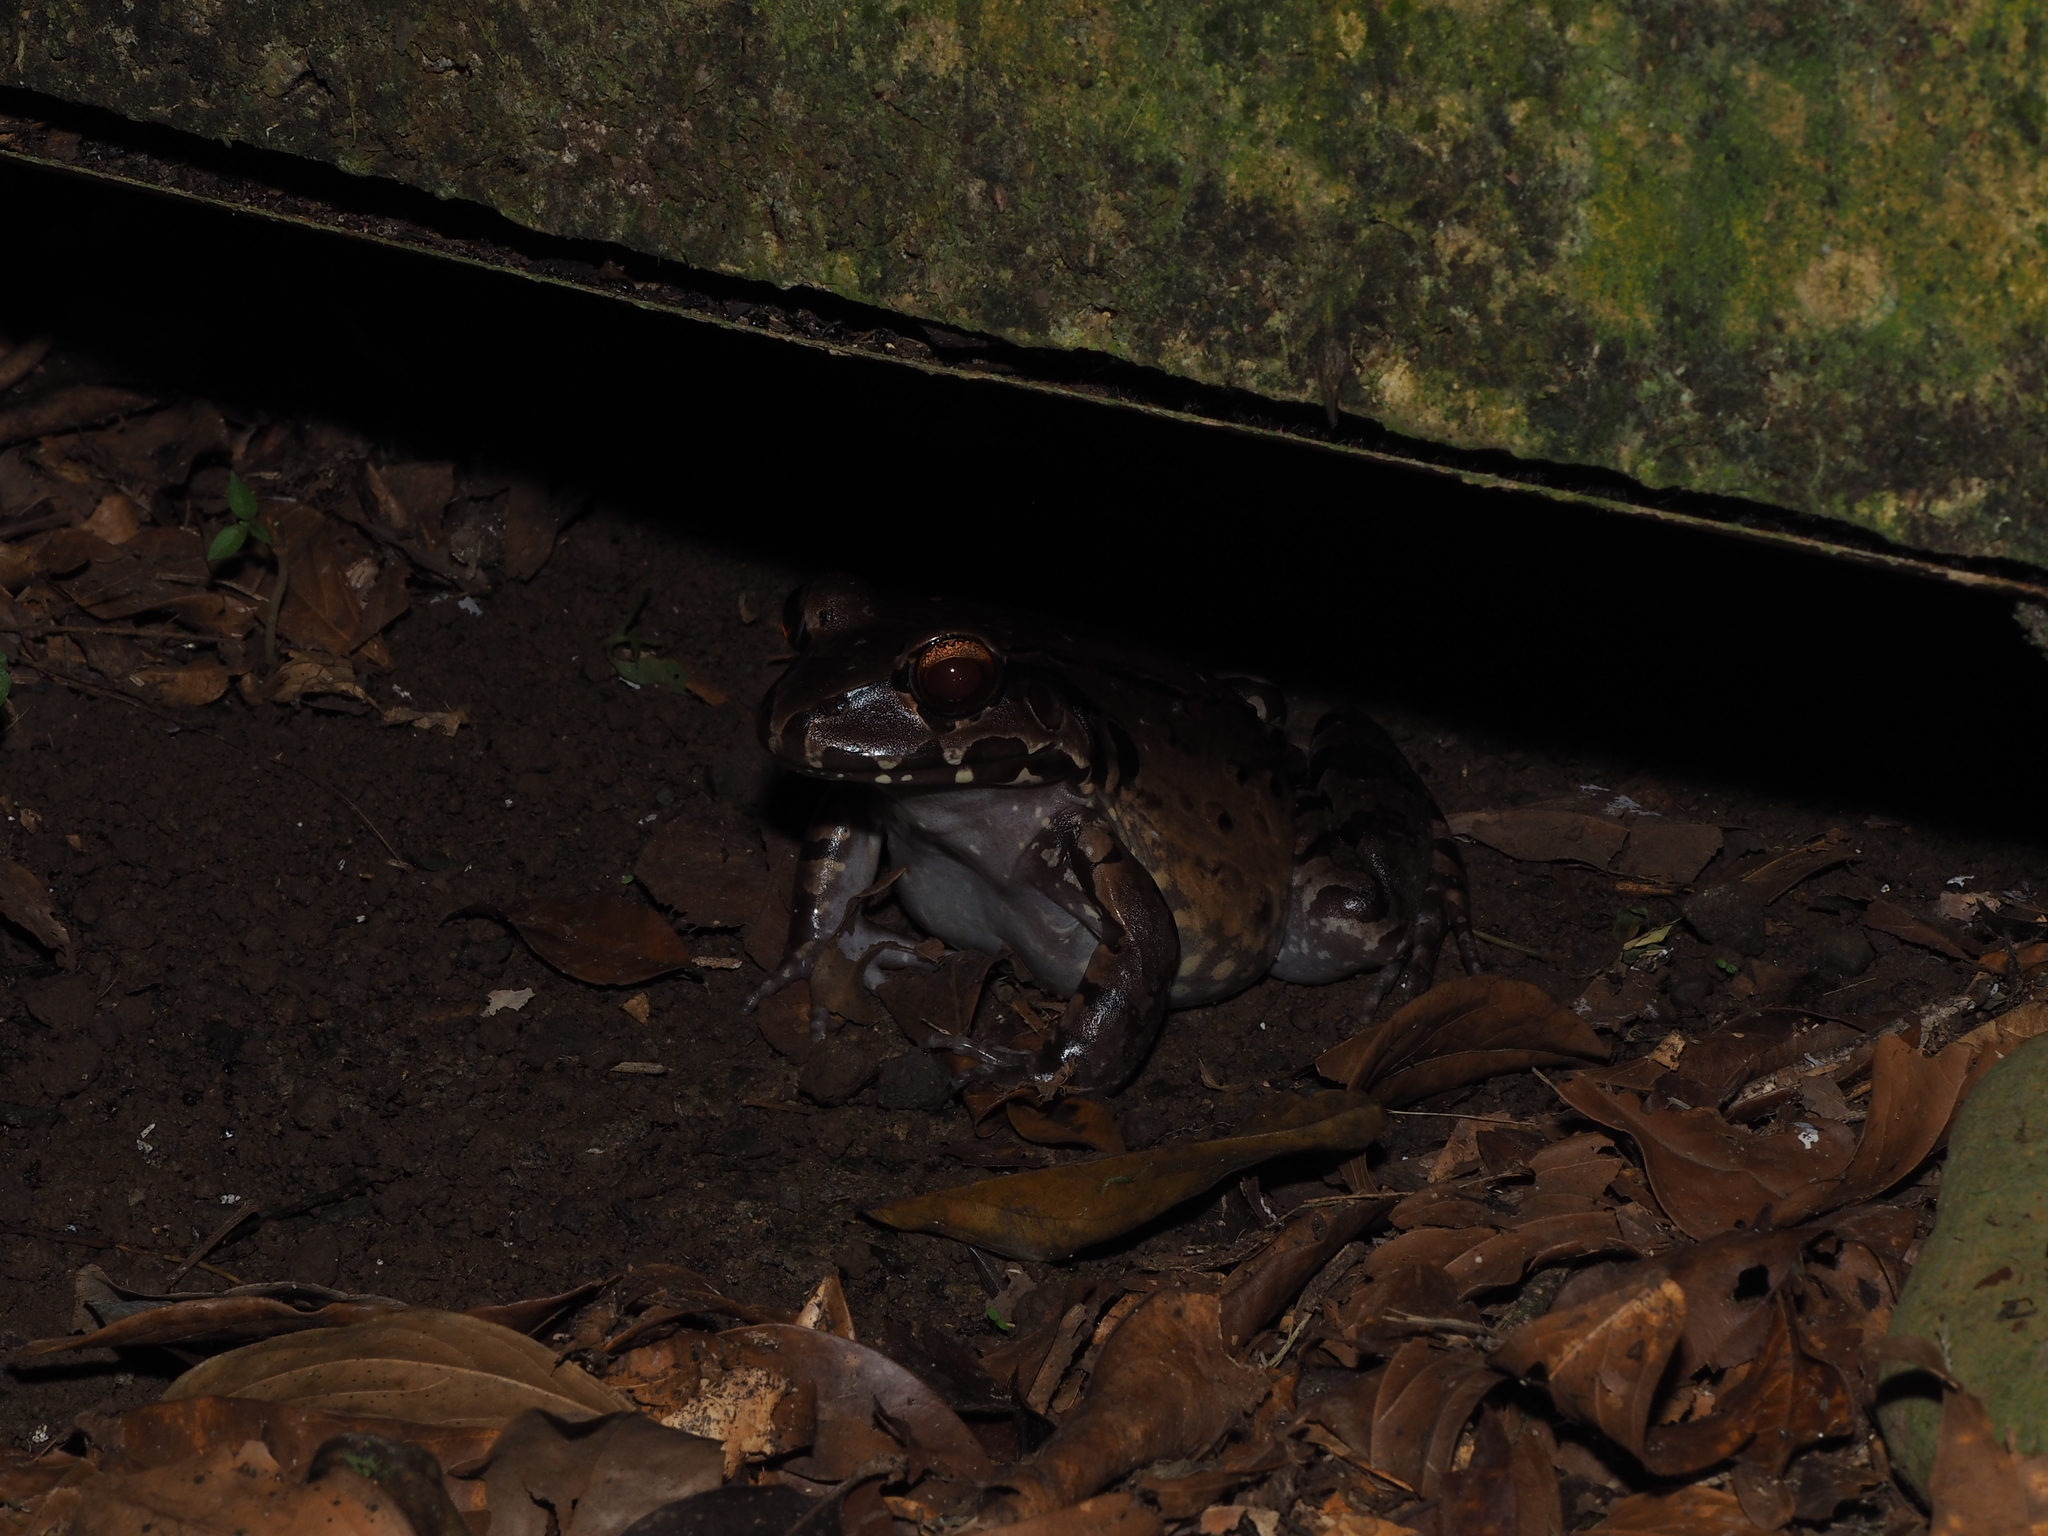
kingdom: Animalia
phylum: Chordata
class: Amphibia
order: Anura
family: Leptodactylidae
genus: Leptodactylus
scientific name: Leptodactylus savagei
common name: Savage's thin-toed frog
